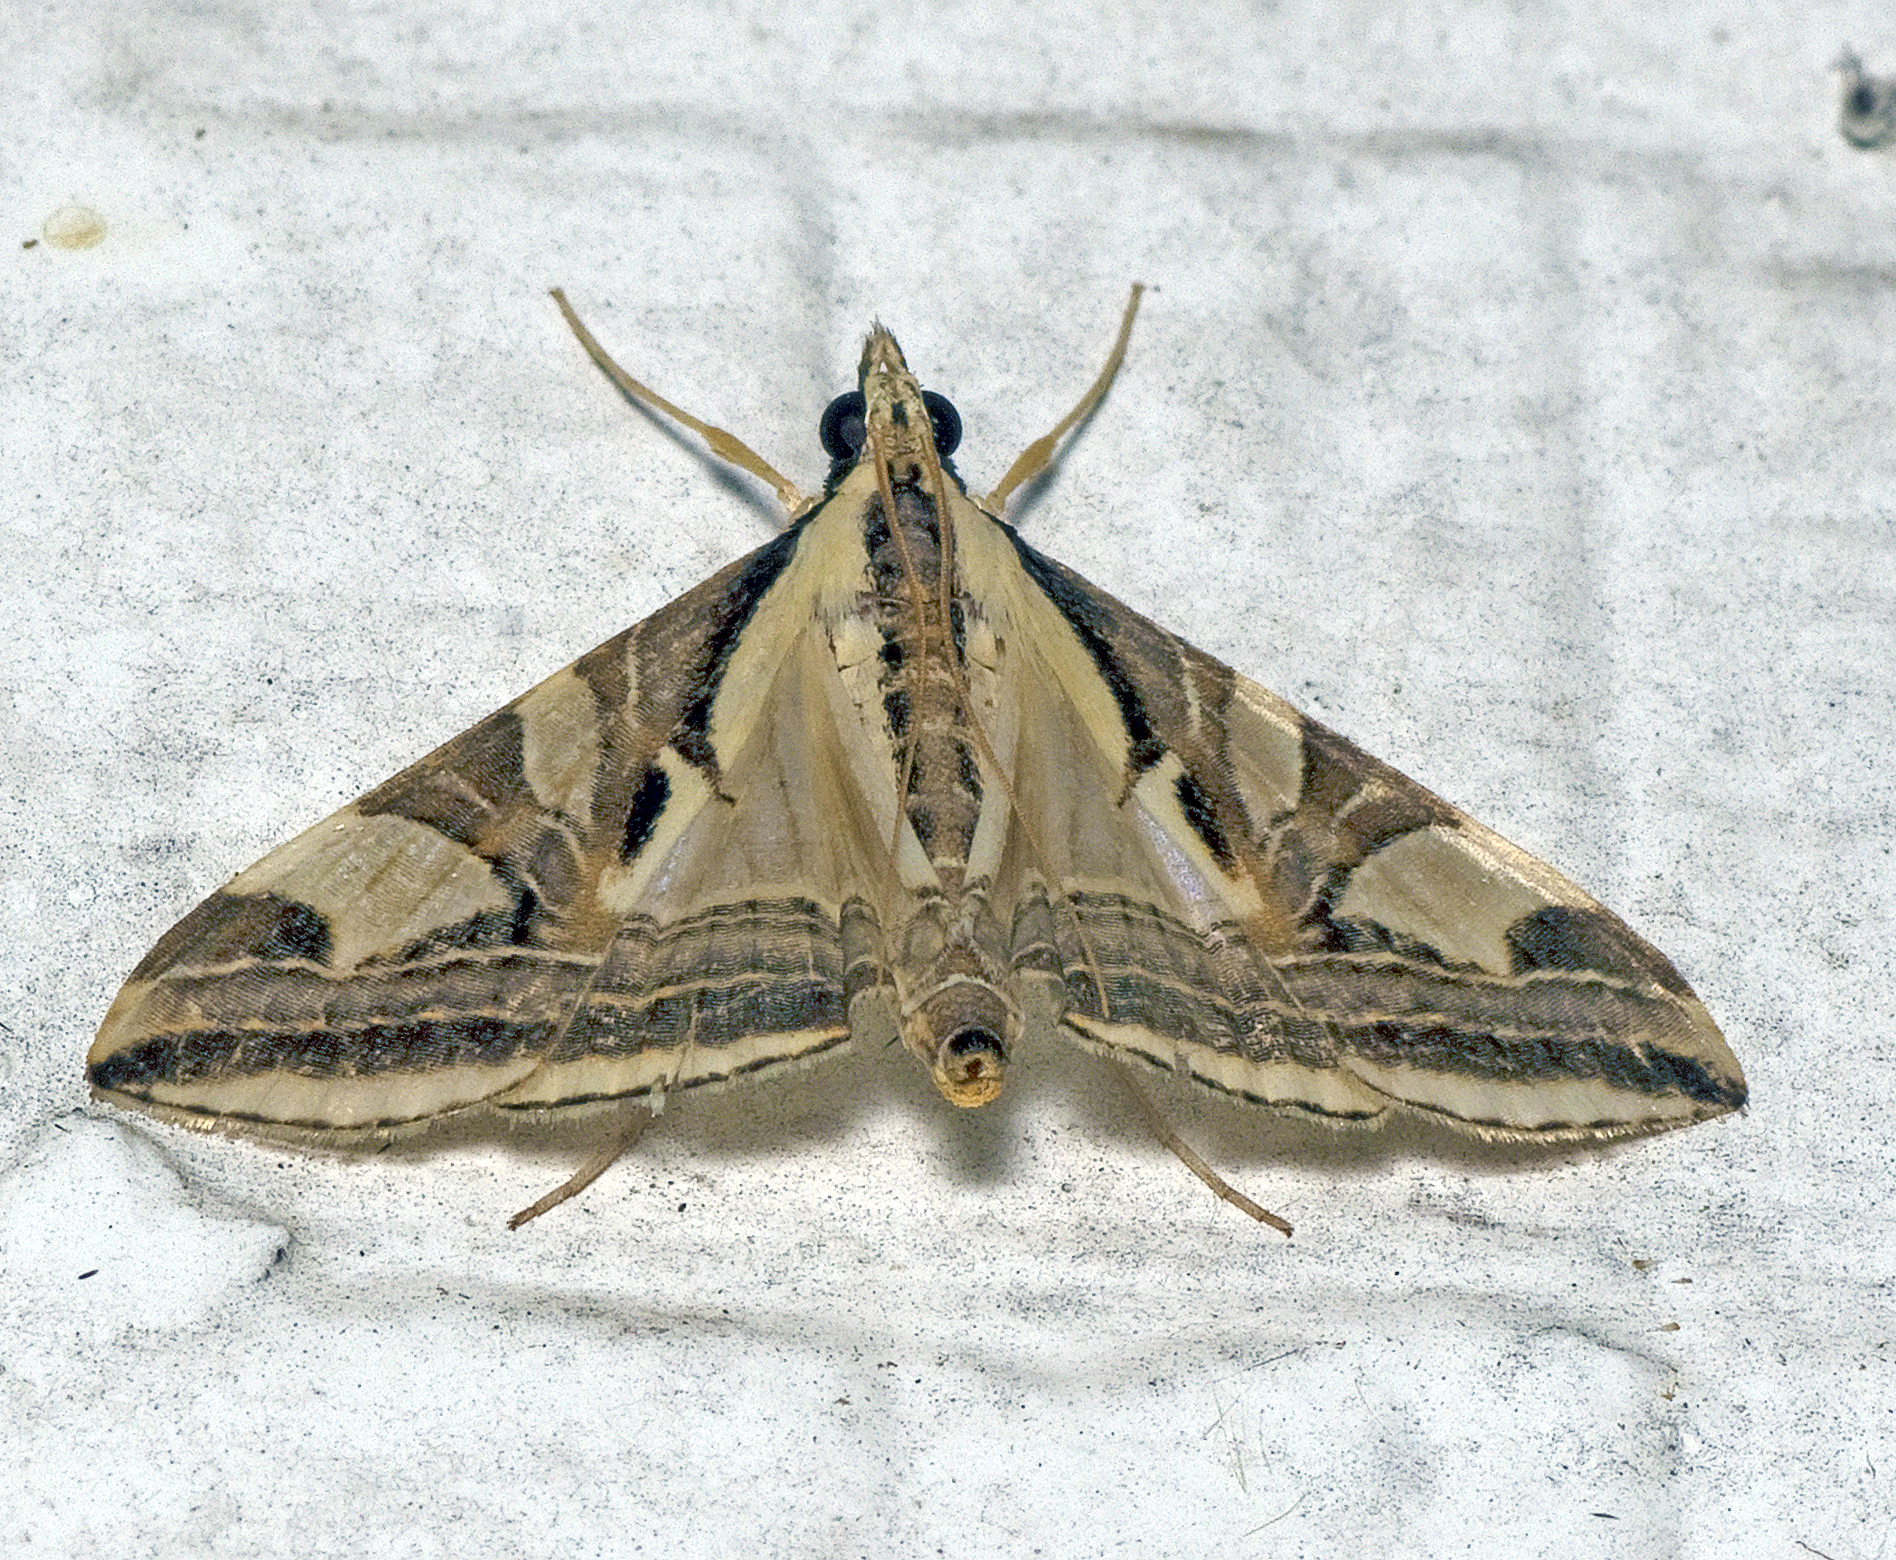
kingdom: Animalia
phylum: Arthropoda
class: Insecta
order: Lepidoptera
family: Crambidae
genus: Agrioglypta
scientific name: Agrioglypta excelsalis
